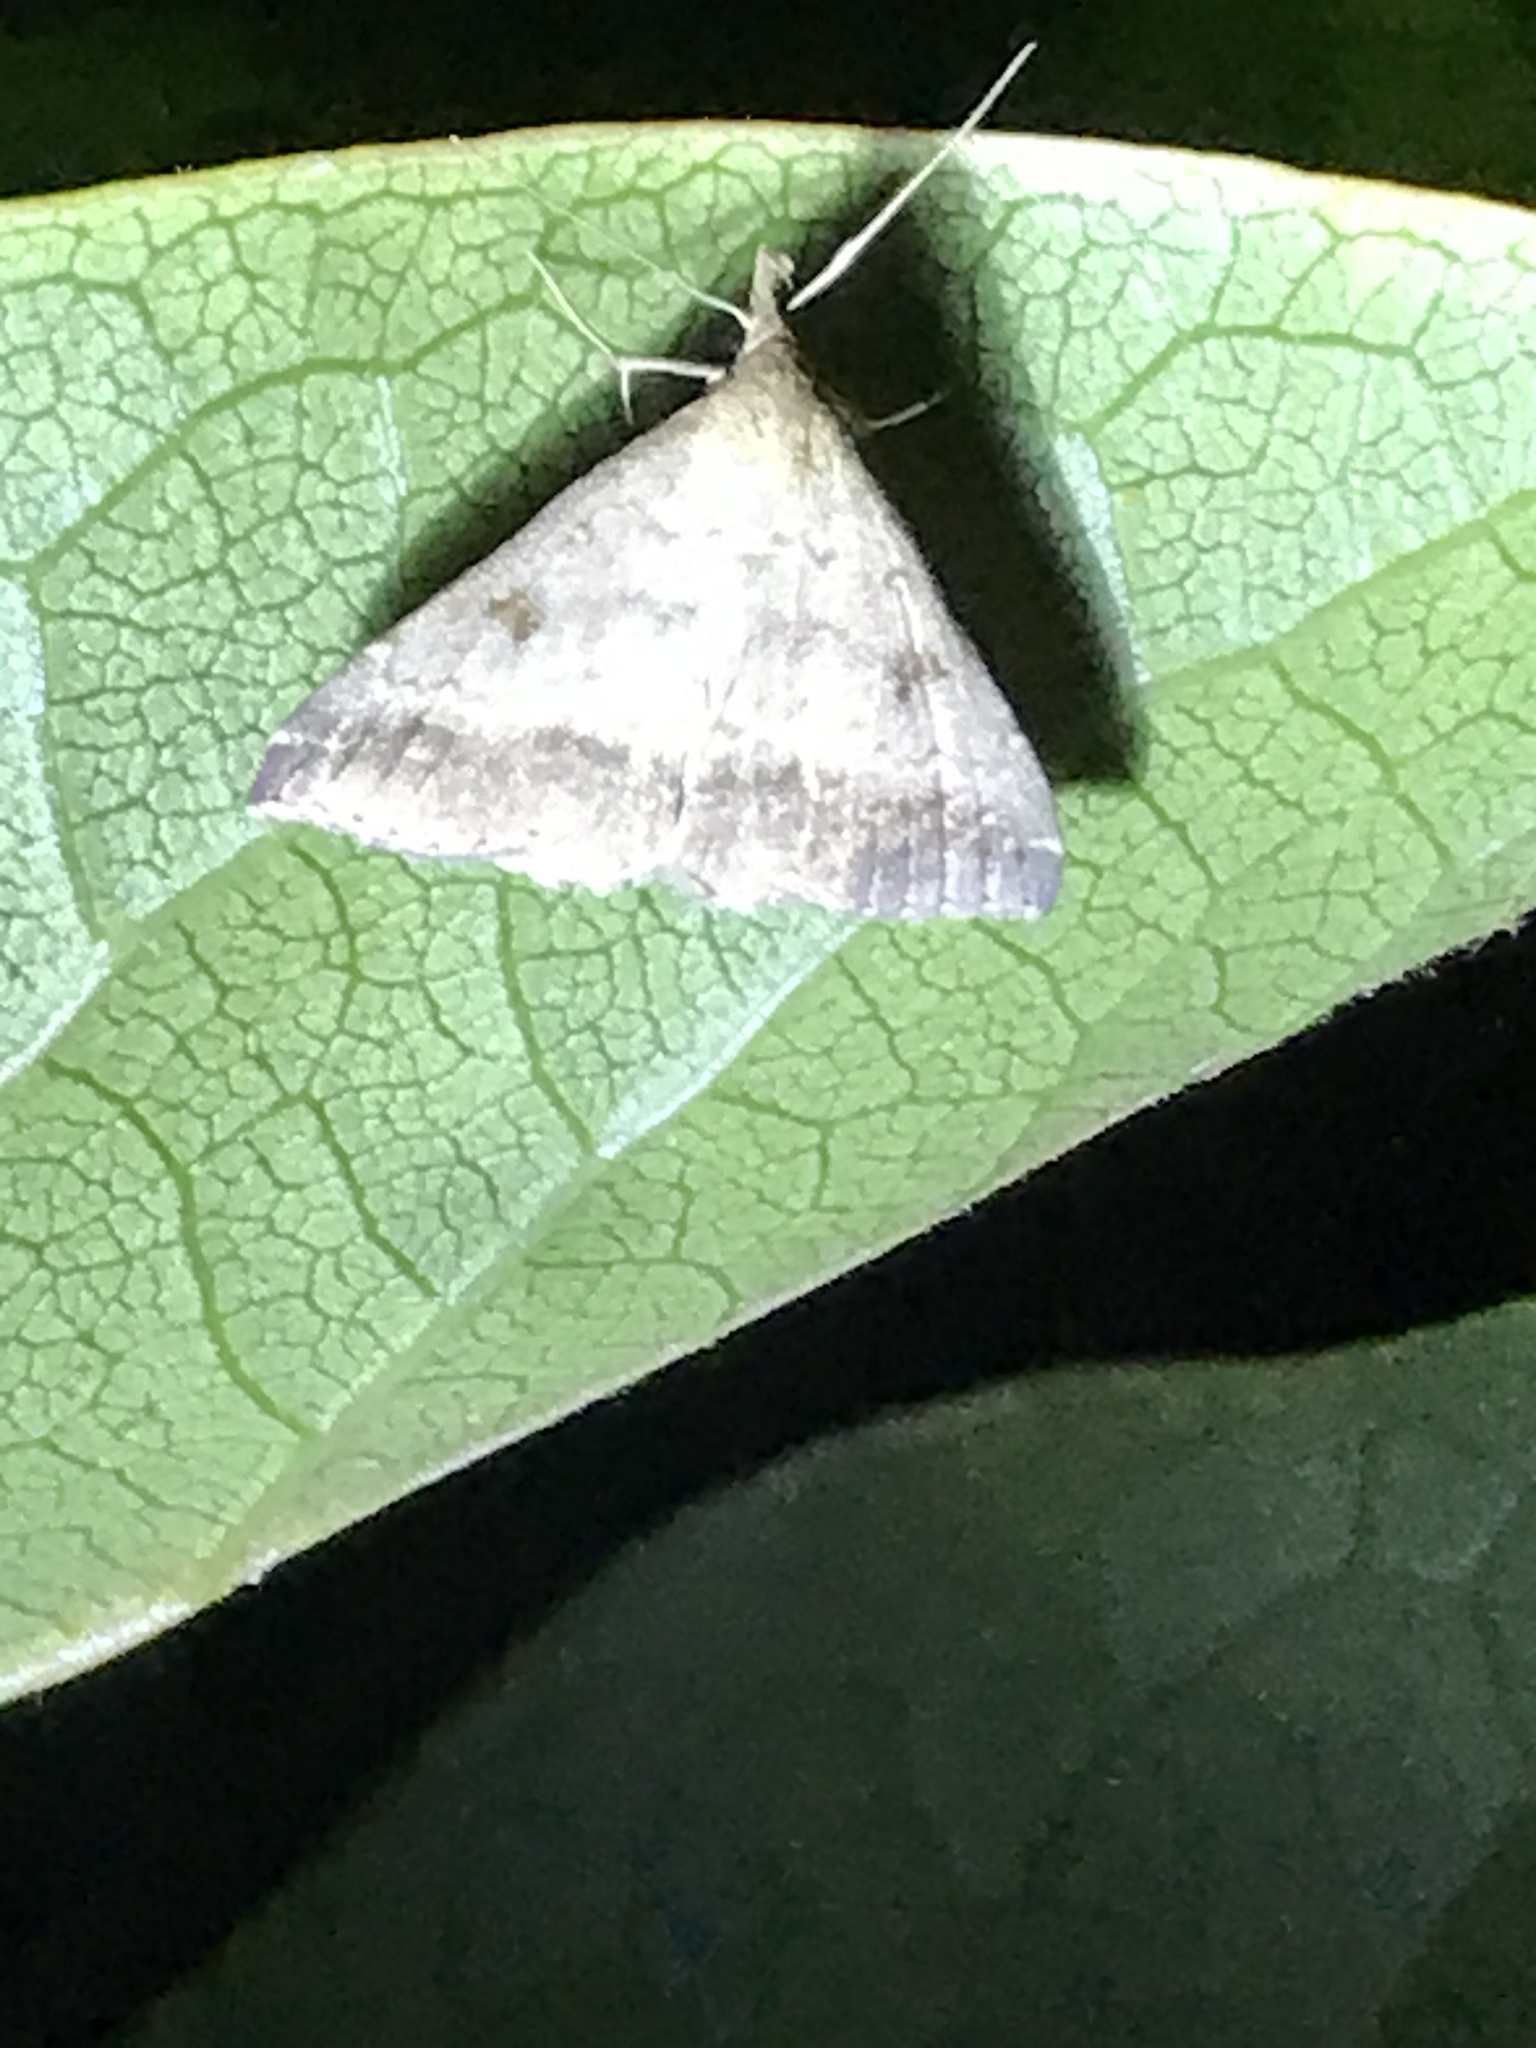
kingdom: Animalia
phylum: Arthropoda
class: Insecta
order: Lepidoptera
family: Erebidae
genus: Tetanolita
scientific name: Tetanolita palligera
